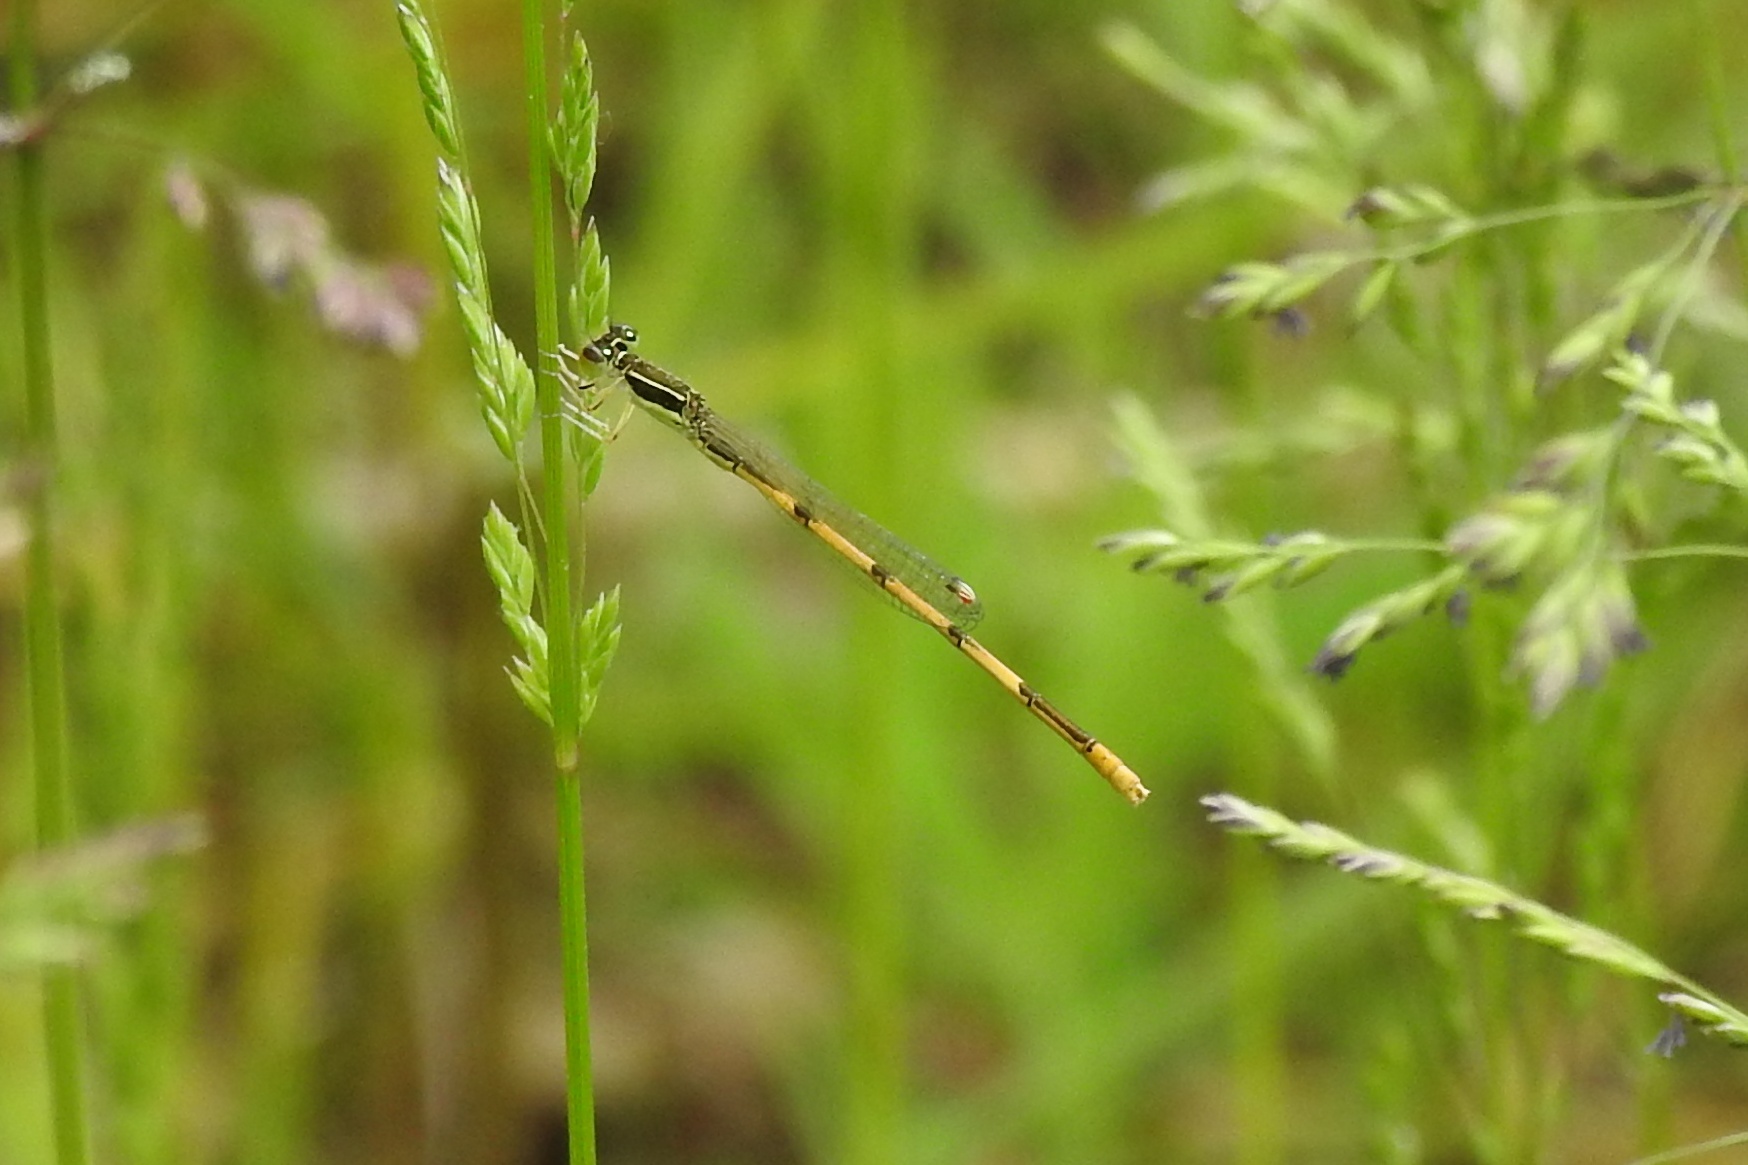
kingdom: Animalia
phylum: Arthropoda
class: Insecta
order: Odonata
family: Coenagrionidae
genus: Ischnura
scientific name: Ischnura hastata
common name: Citrine forktail
